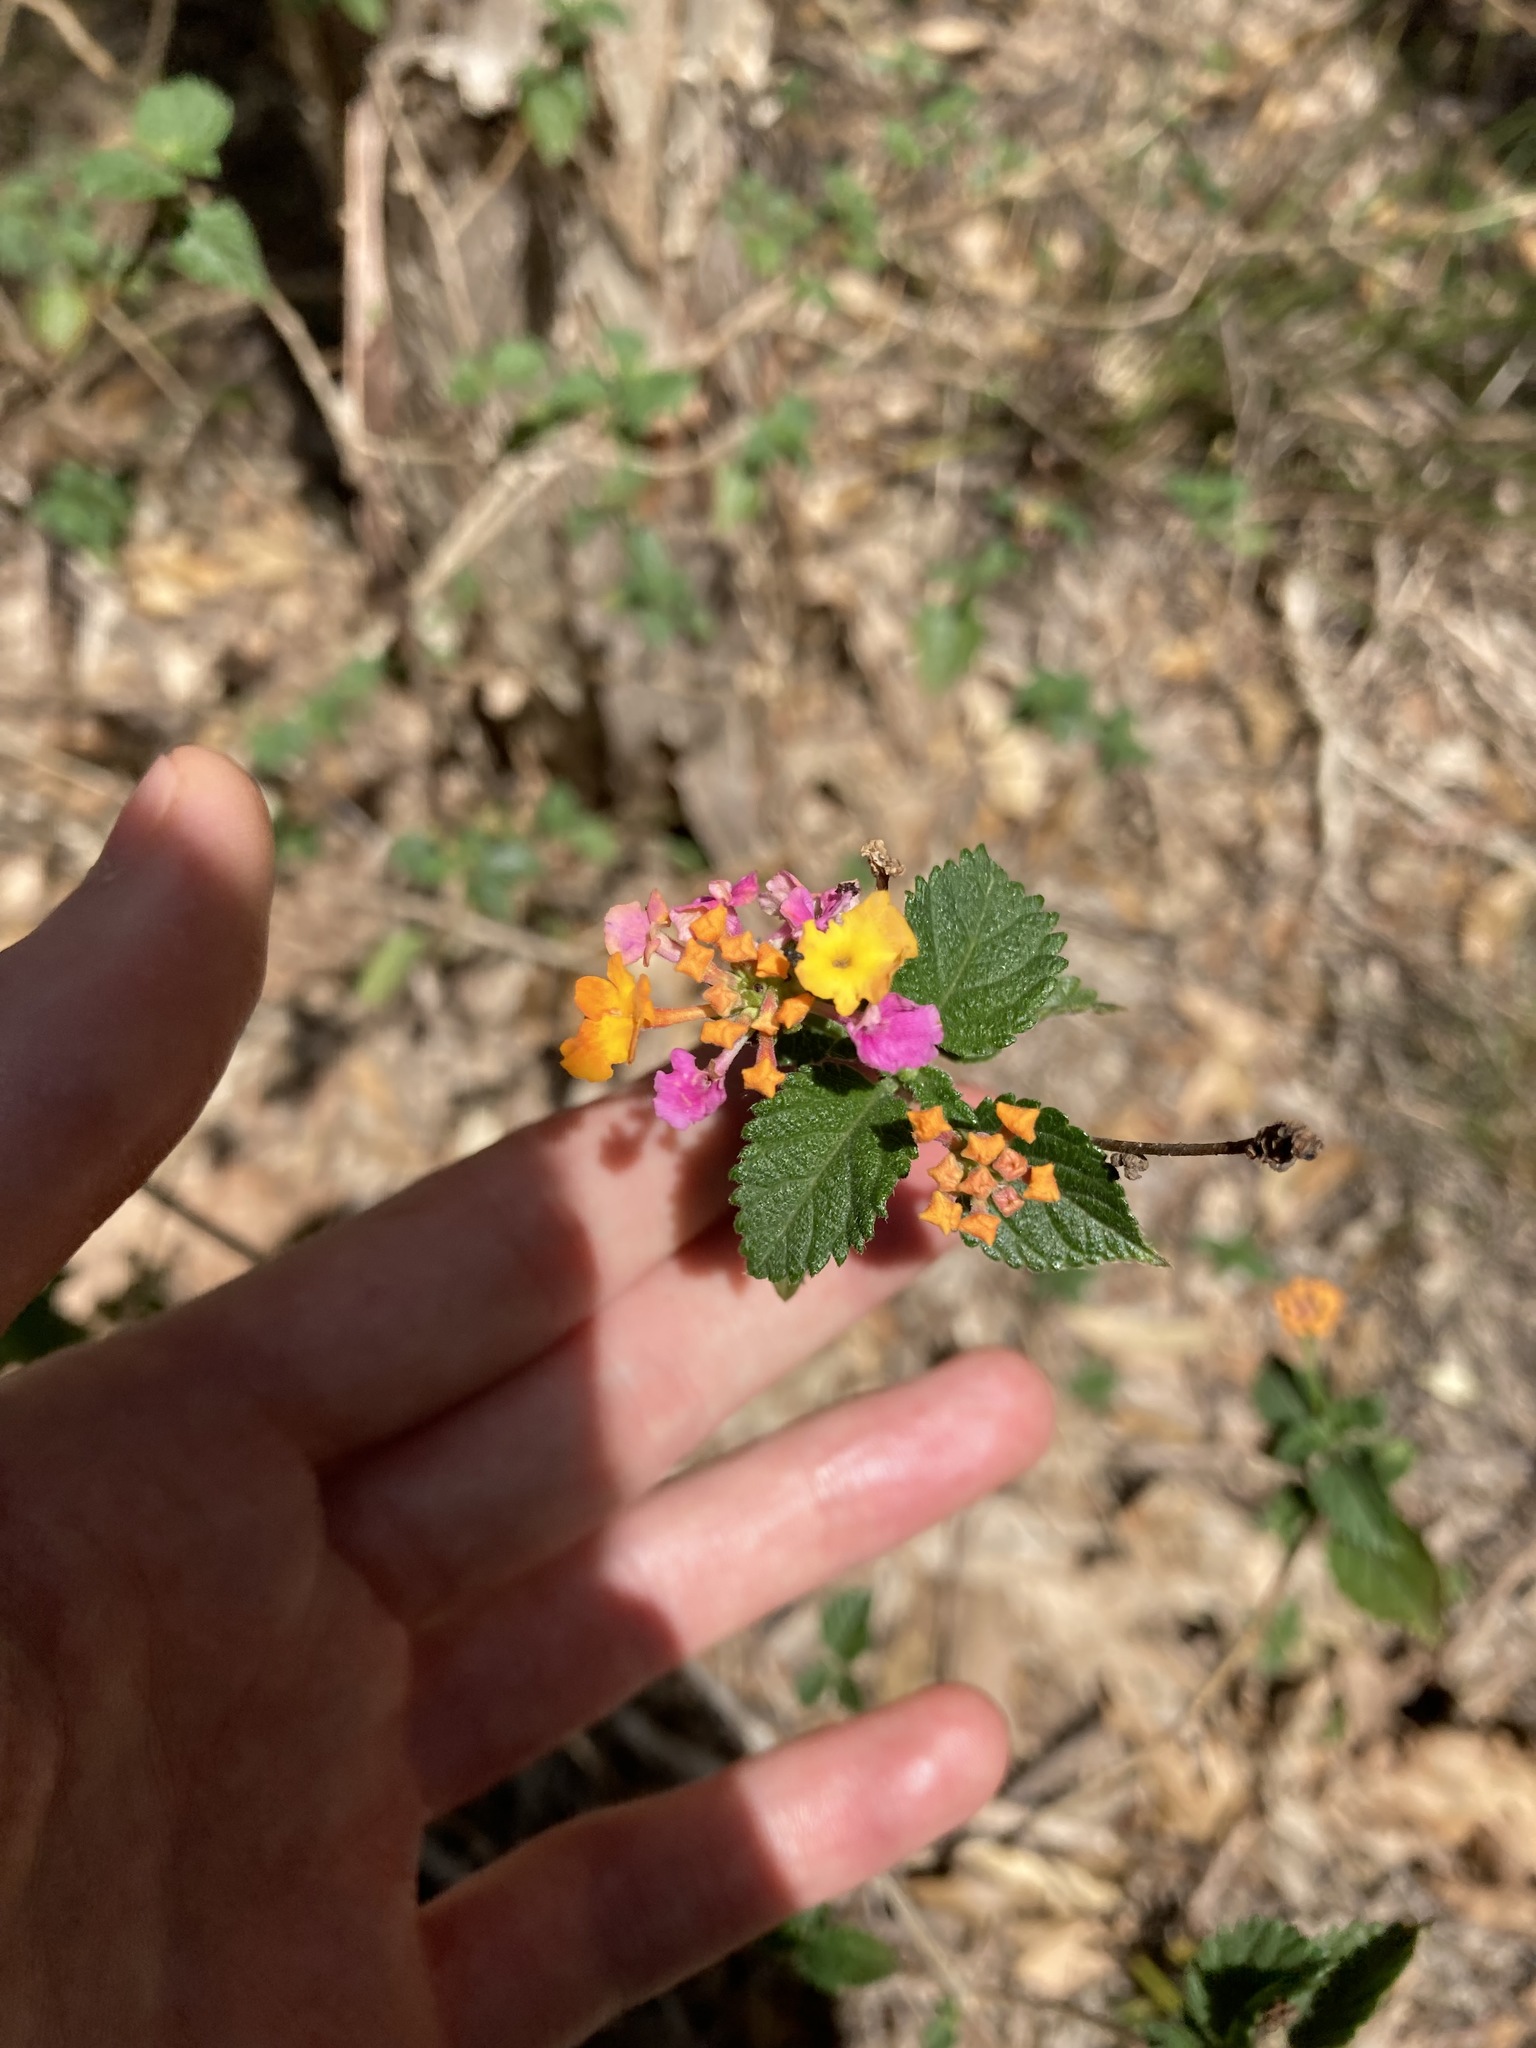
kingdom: Plantae
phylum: Tracheophyta
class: Magnoliopsida
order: Lamiales
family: Verbenaceae
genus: Lantana
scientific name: Lantana camara
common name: Lantana
